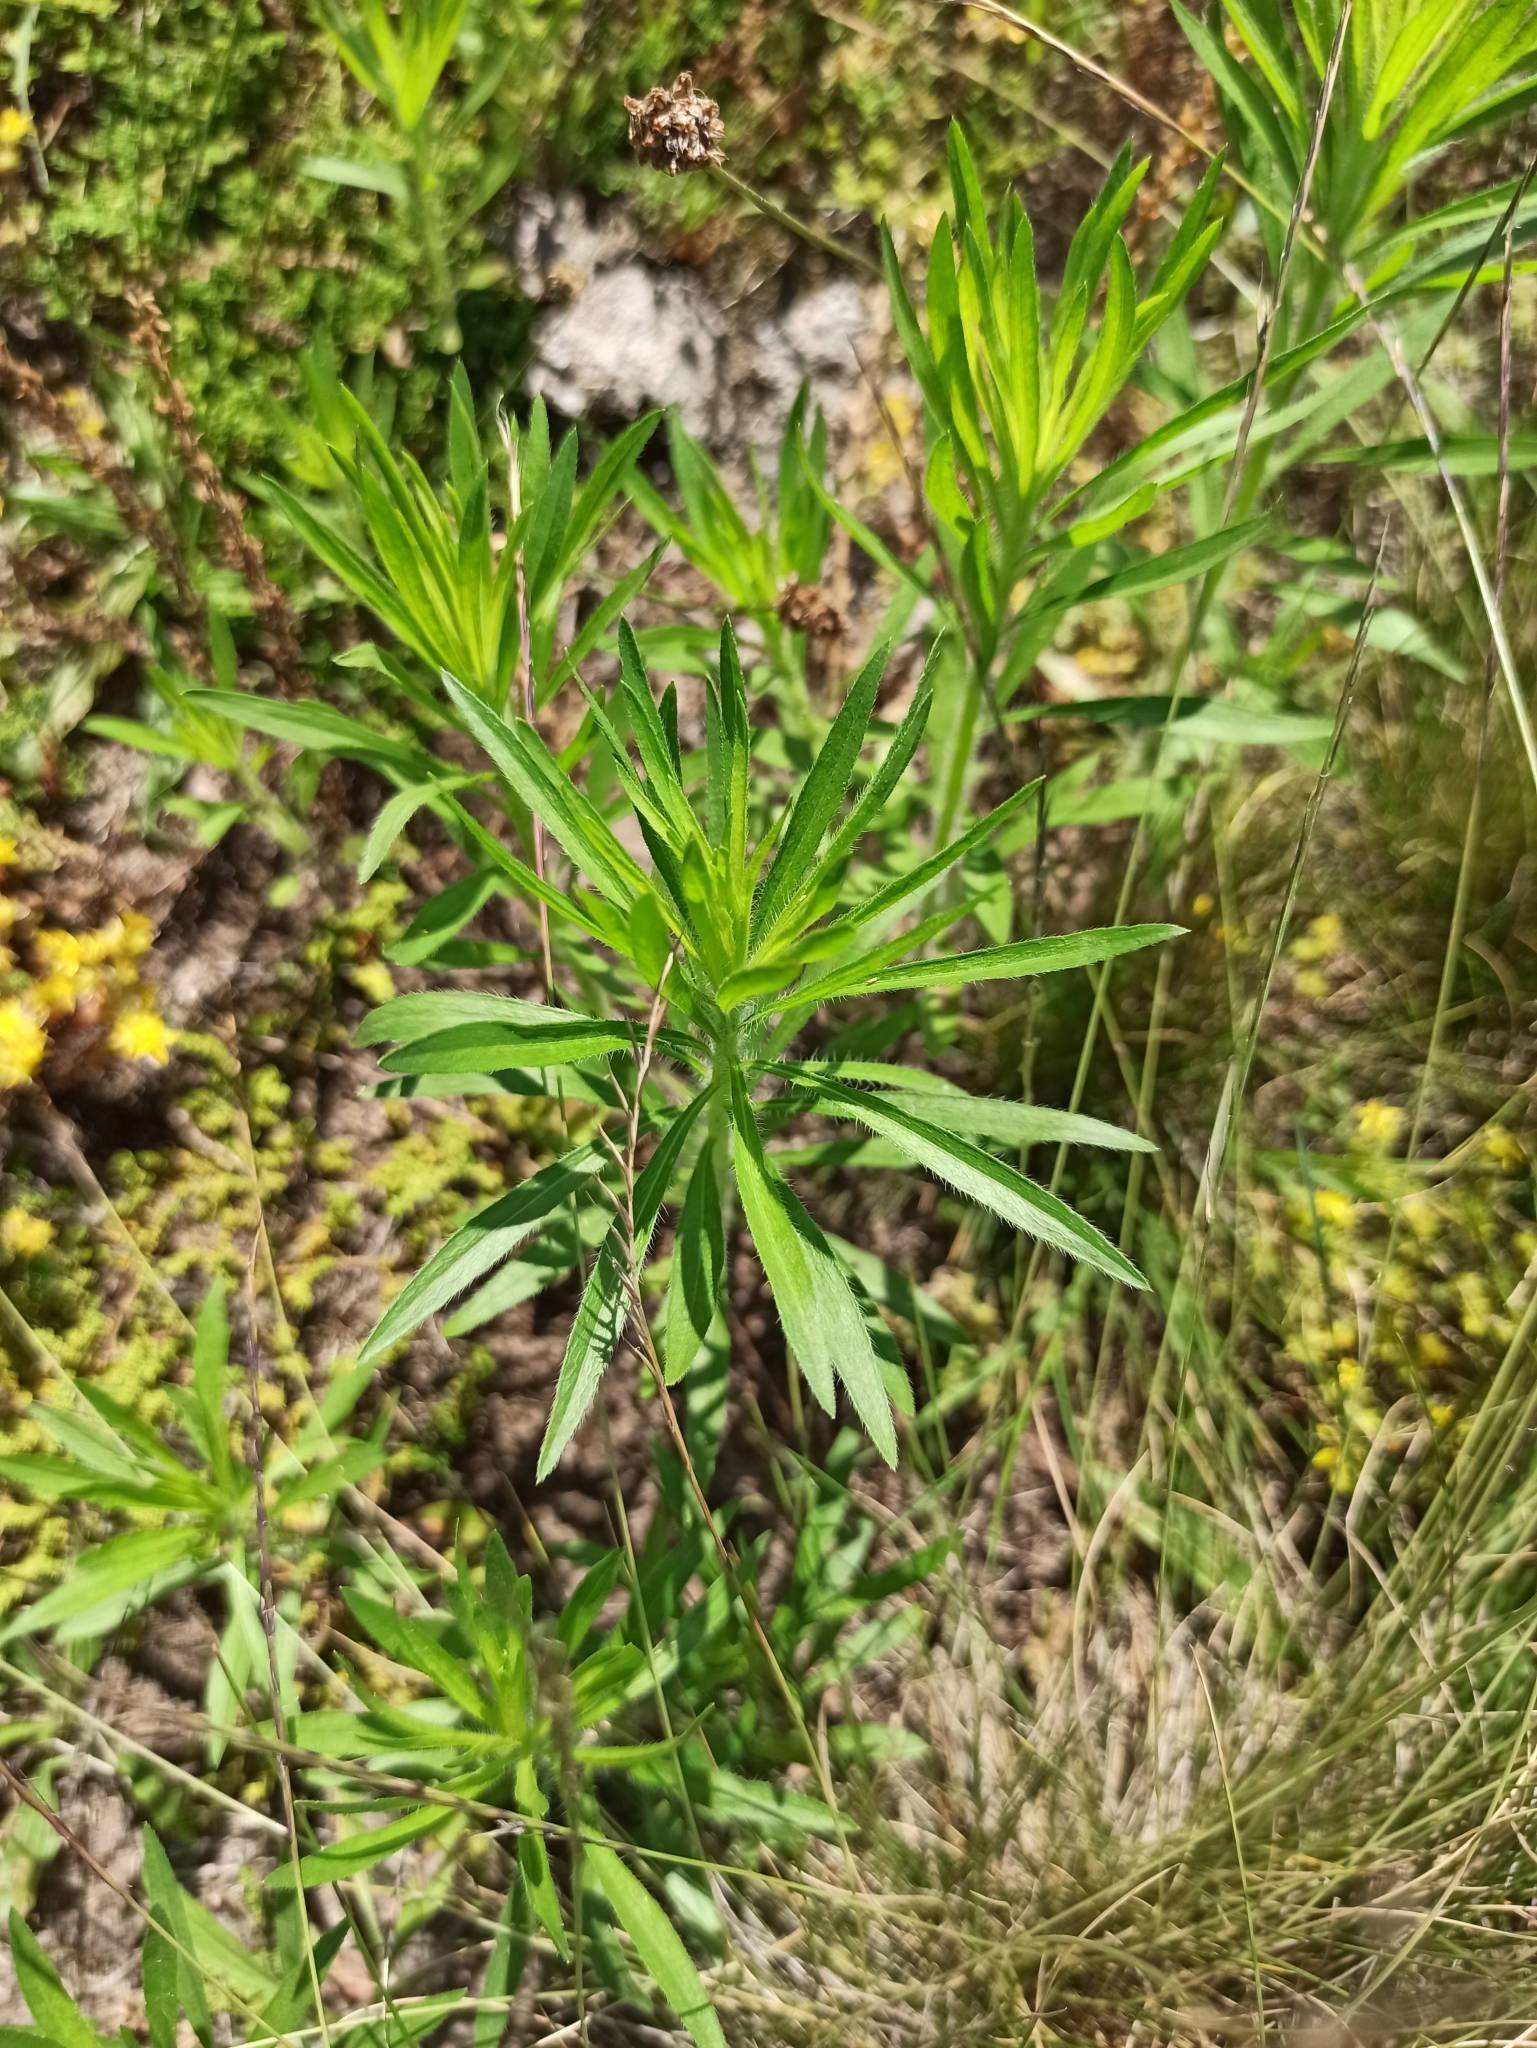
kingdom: Plantae
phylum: Tracheophyta
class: Magnoliopsida
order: Asterales
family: Asteraceae
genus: Erigeron
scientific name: Erigeron canadensis
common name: Canadian fleabane
